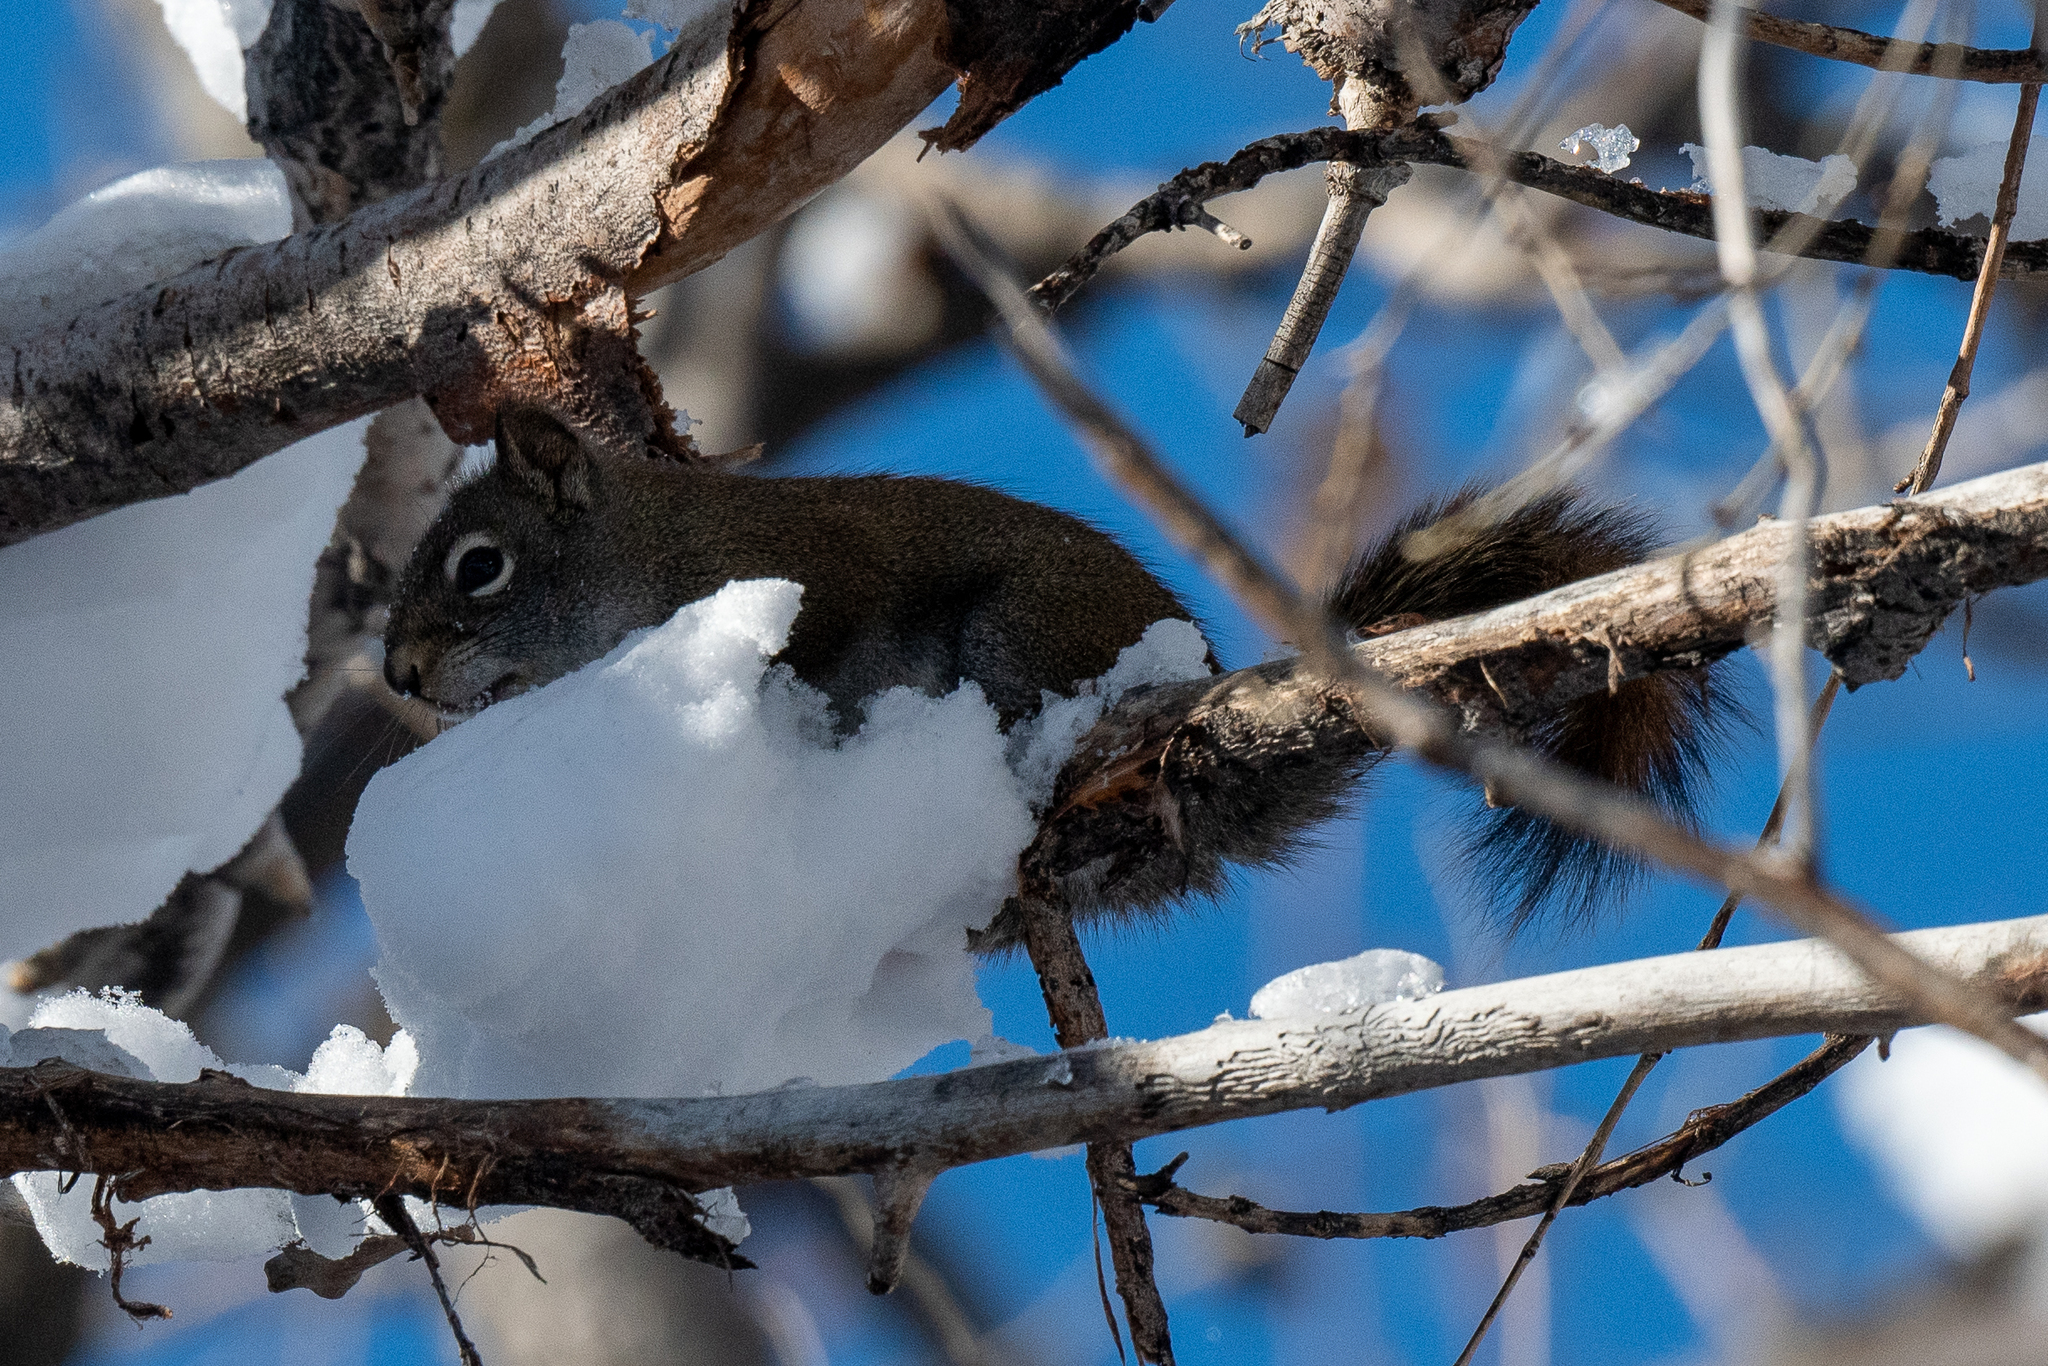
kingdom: Animalia
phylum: Chordata
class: Mammalia
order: Rodentia
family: Sciuridae
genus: Tamiasciurus
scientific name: Tamiasciurus hudsonicus
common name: Red squirrel
